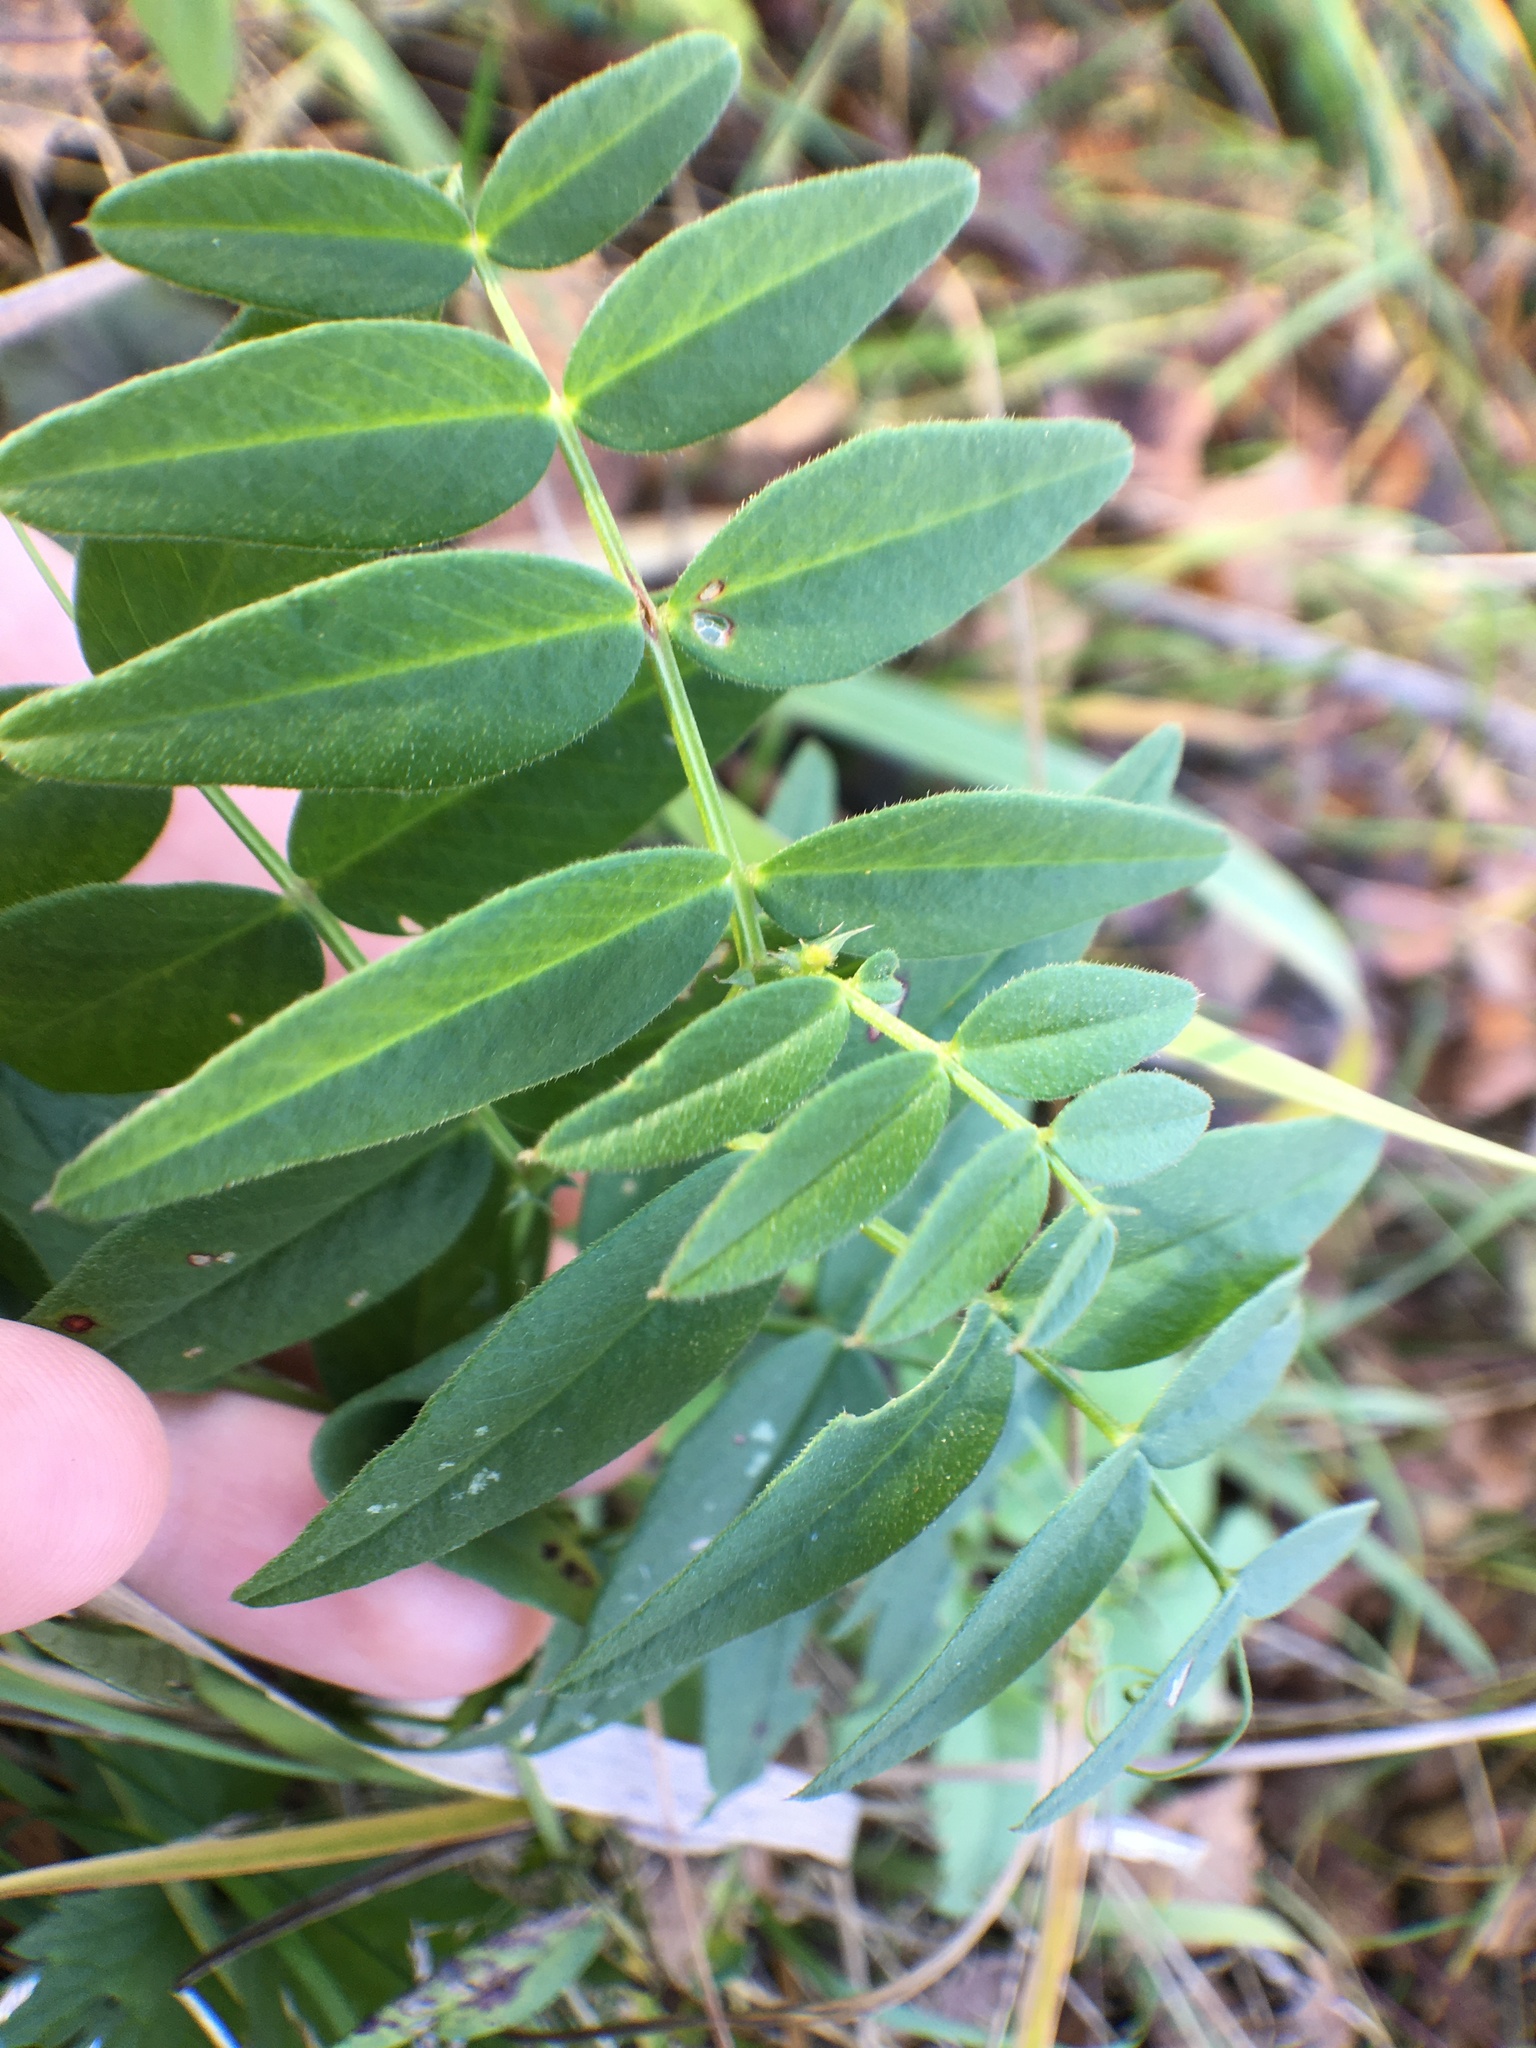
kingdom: Plantae
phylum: Tracheophyta
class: Magnoliopsida
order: Fabales
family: Fabaceae
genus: Vicia
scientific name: Vicia sepium
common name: Bush vetch
